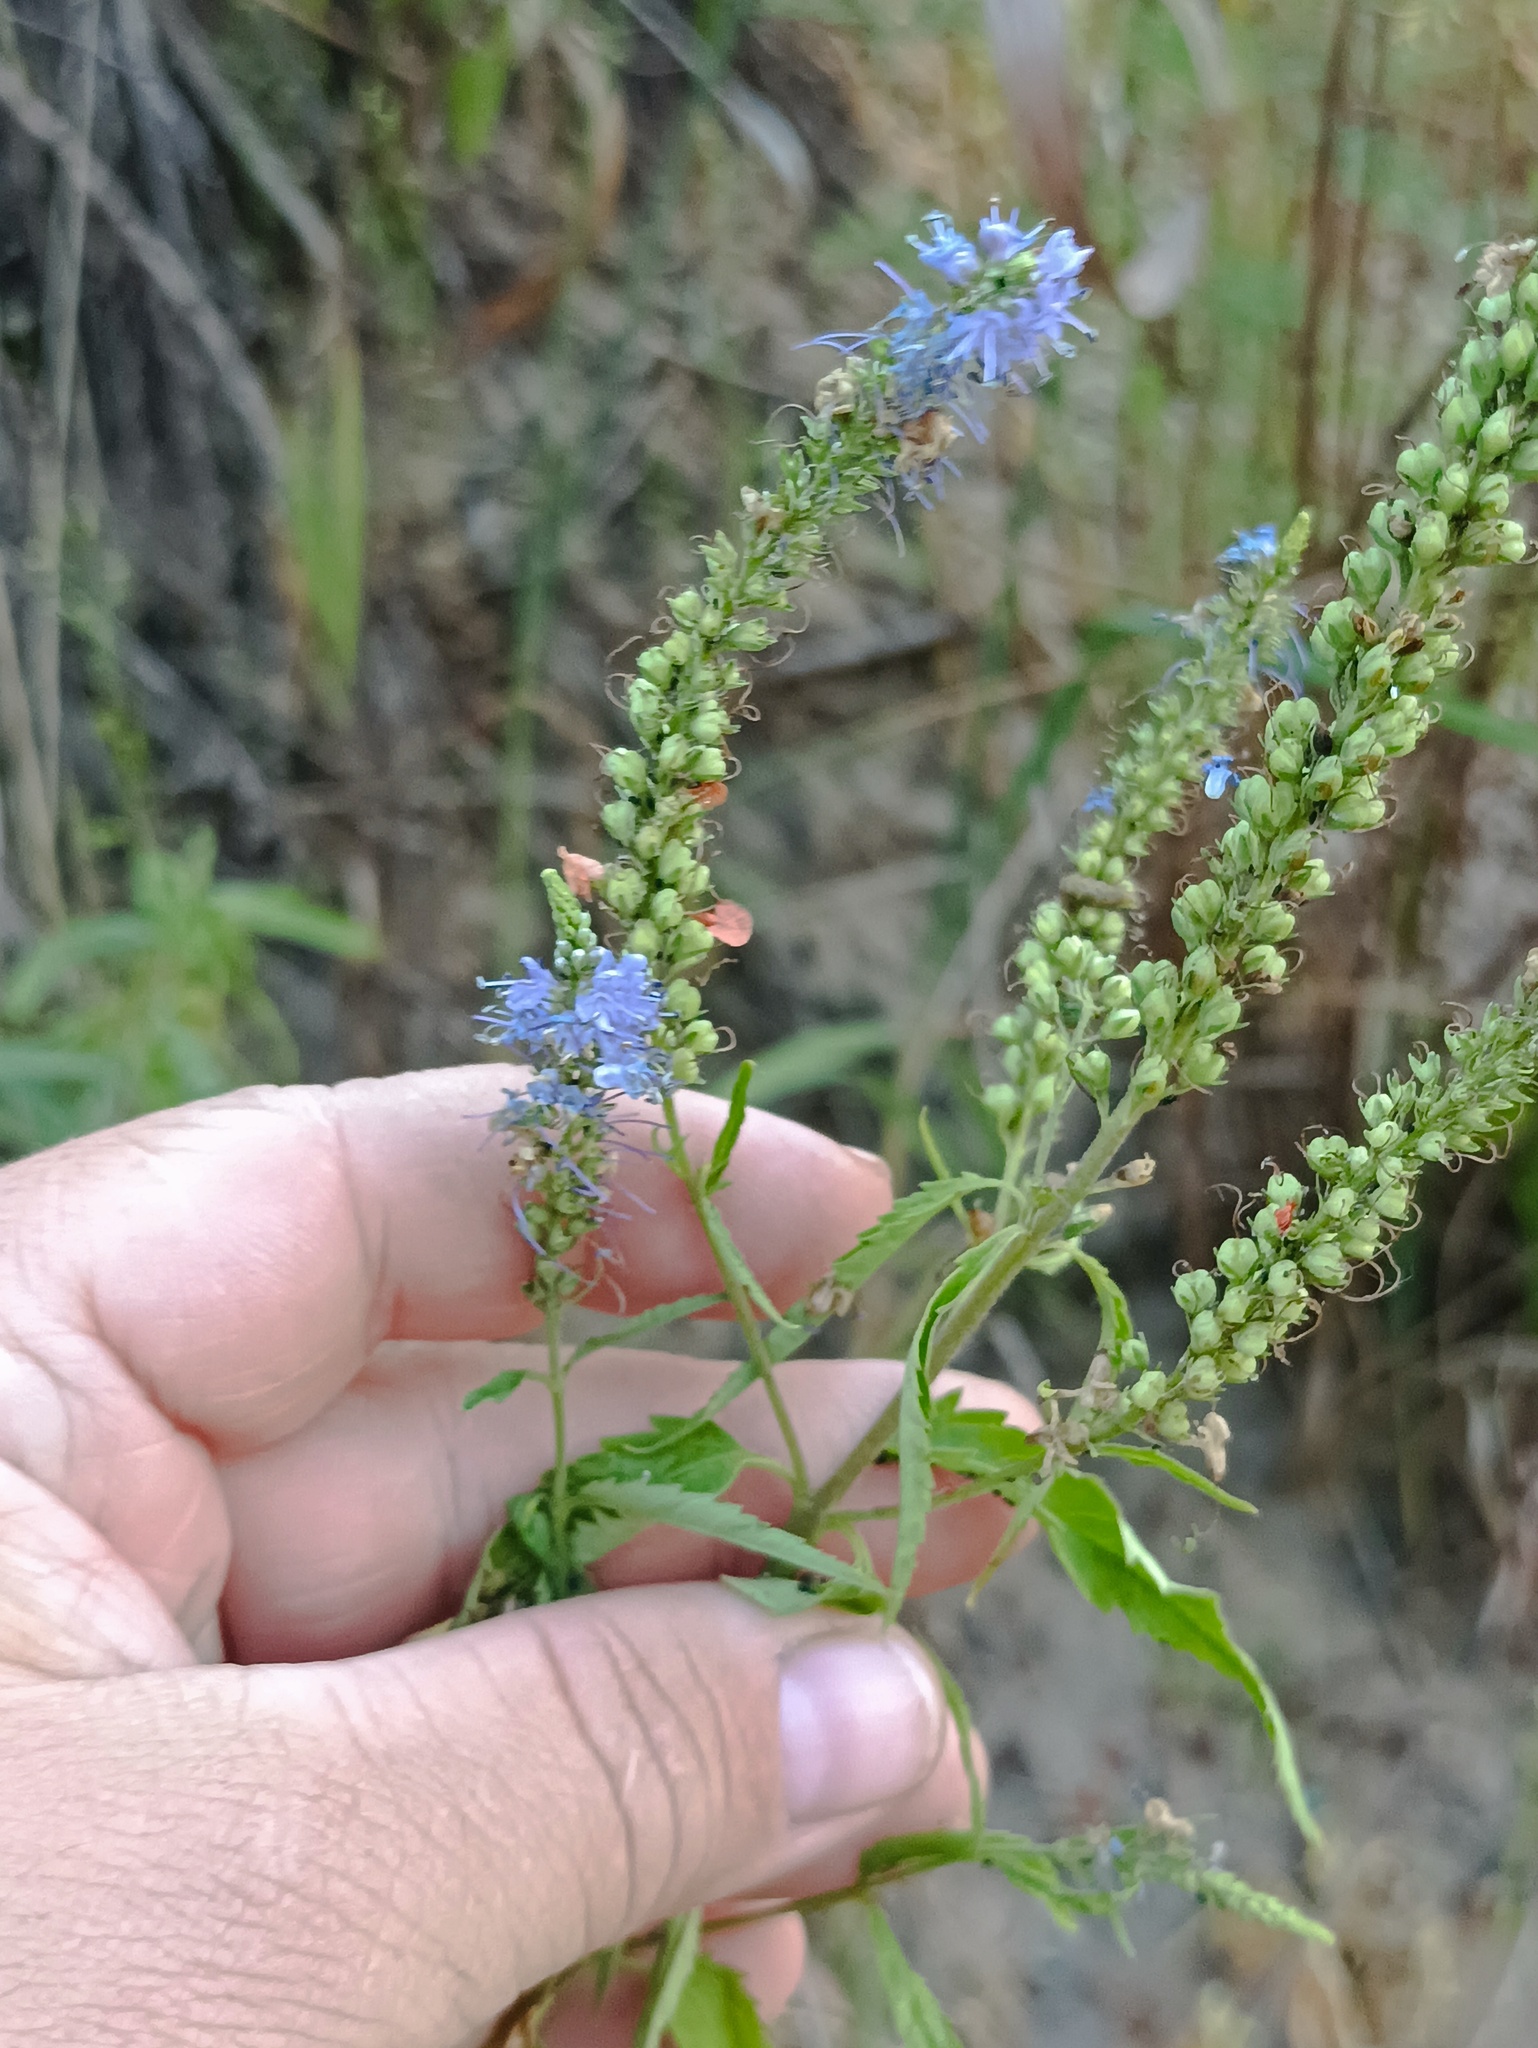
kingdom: Plantae
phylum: Tracheophyta
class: Magnoliopsida
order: Lamiales
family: Plantaginaceae
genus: Veronica
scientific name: Veronica longifolia
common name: Garden speedwell
